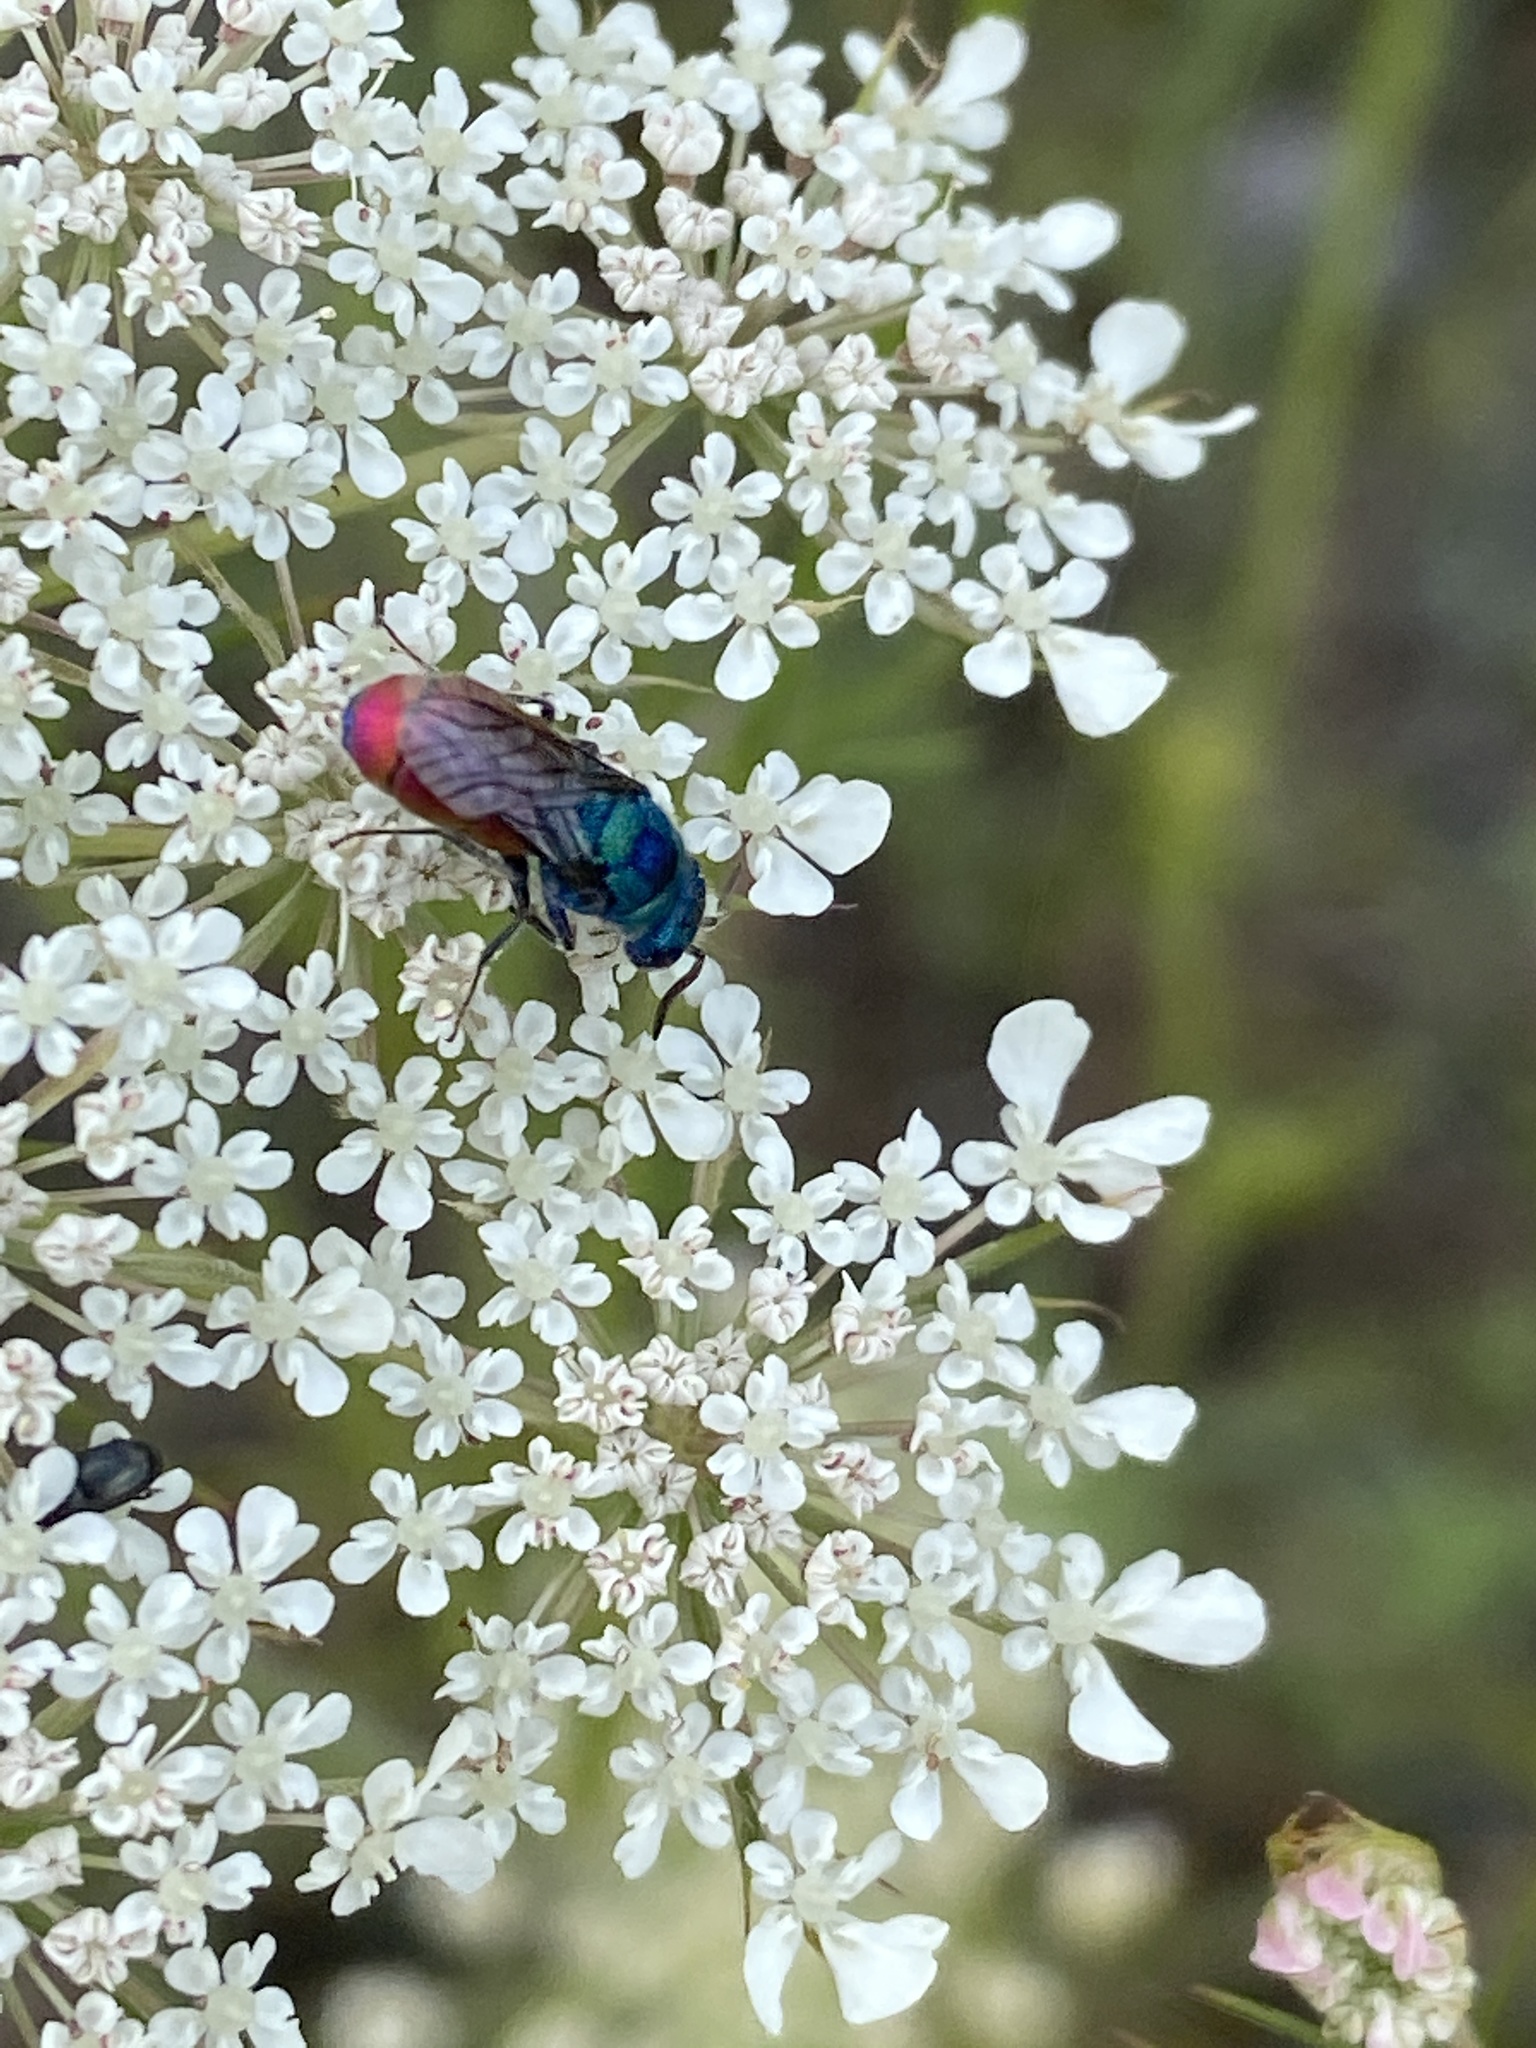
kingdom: Animalia
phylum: Arthropoda
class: Insecta
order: Hymenoptera
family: Chrysididae
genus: Chrysis
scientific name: Chrysis graelsii
